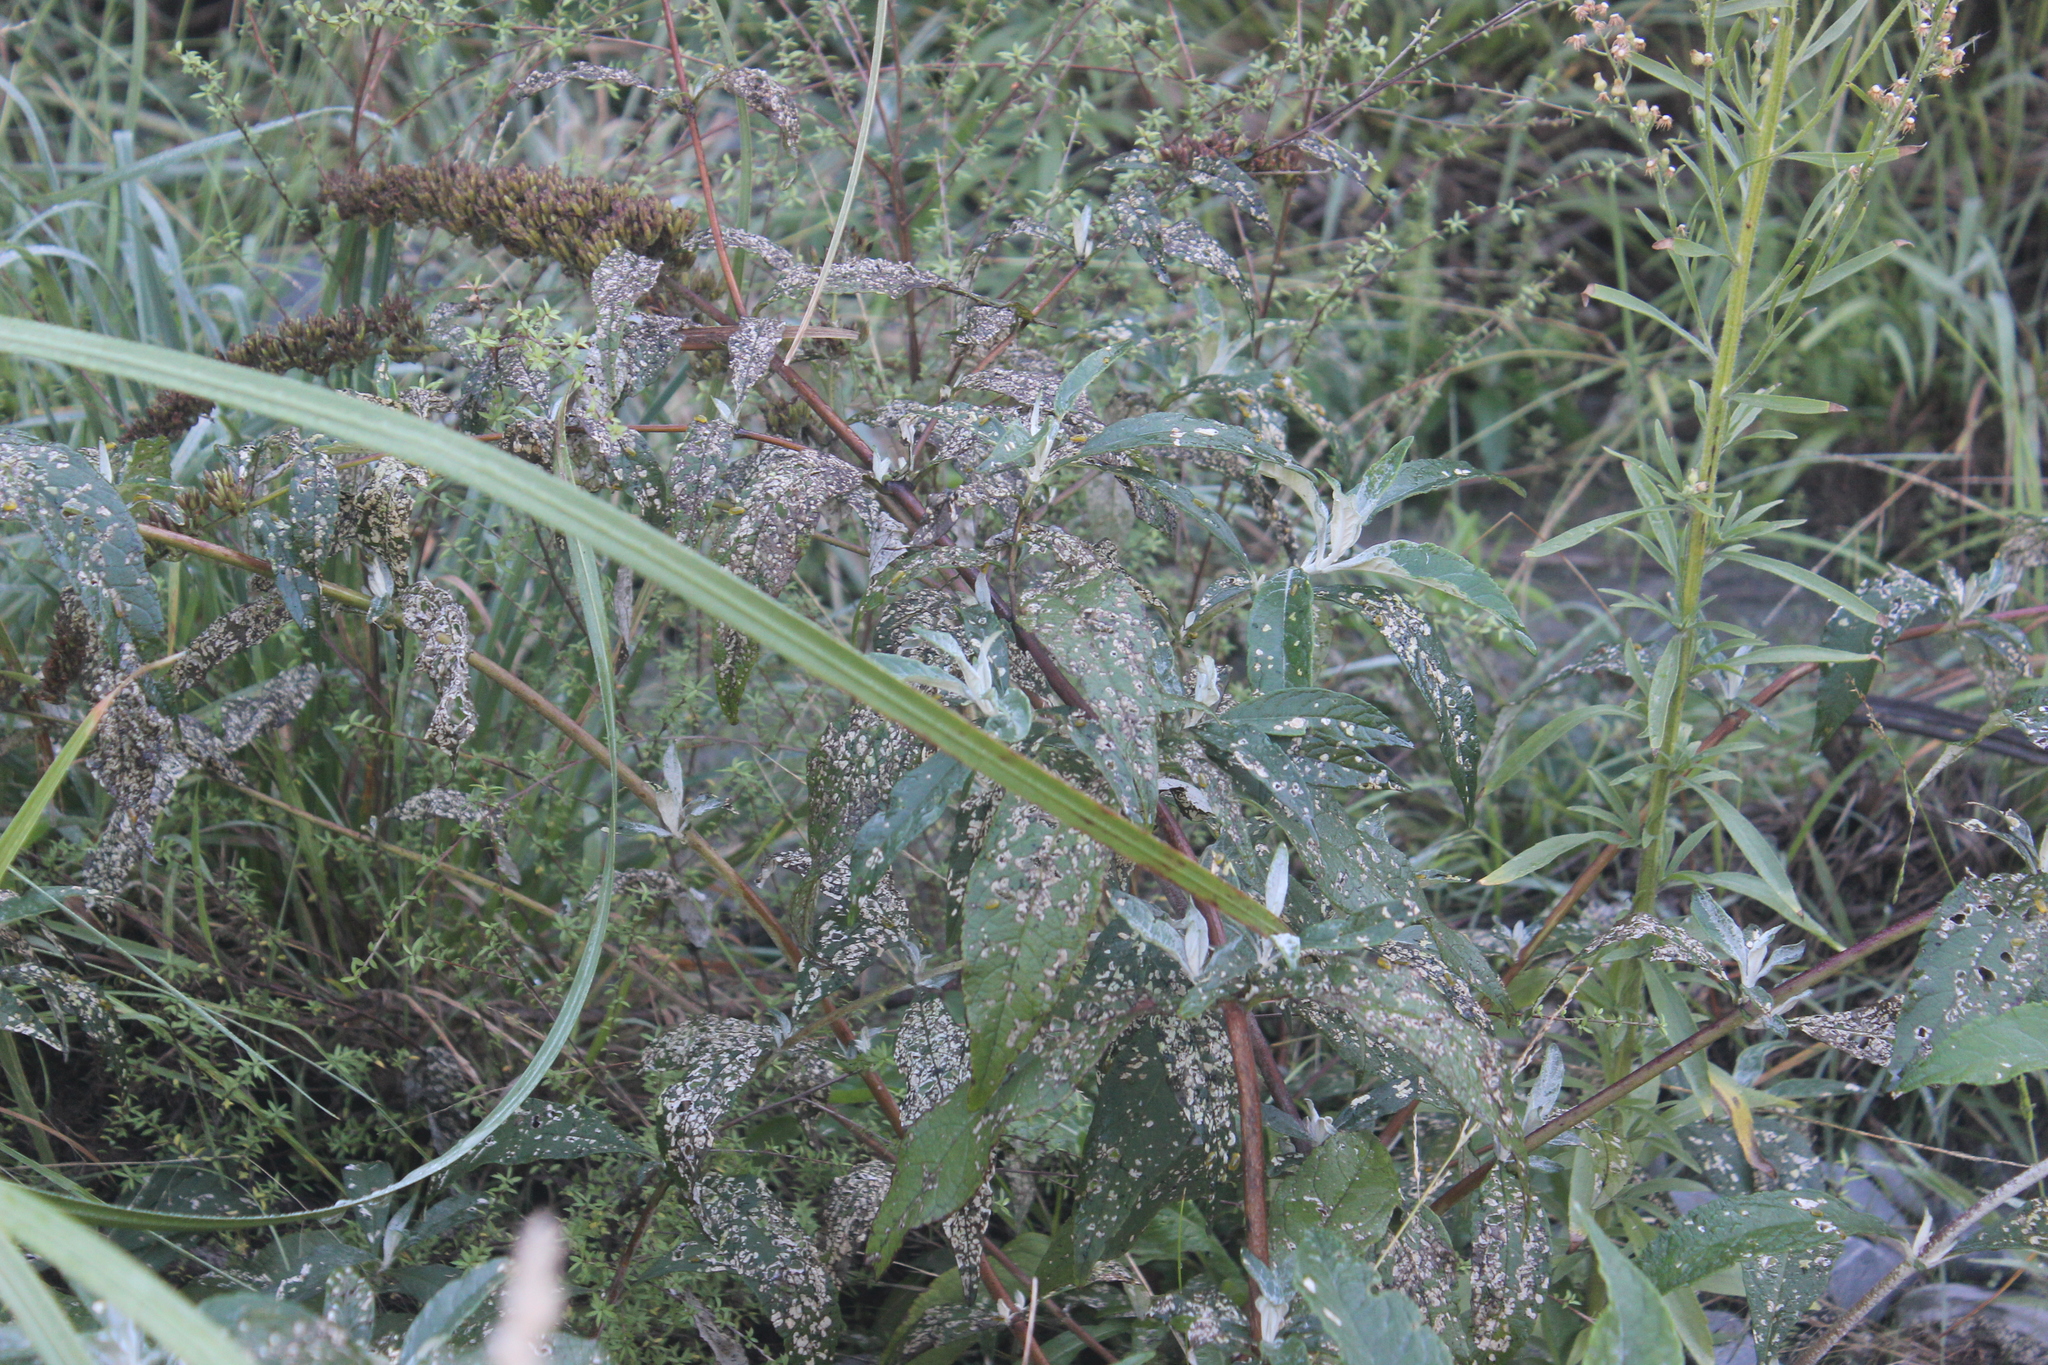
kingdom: Animalia
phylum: Arthropoda
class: Insecta
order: Coleoptera
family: Curculionidae
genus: Cleopus
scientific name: Cleopus japonicus
